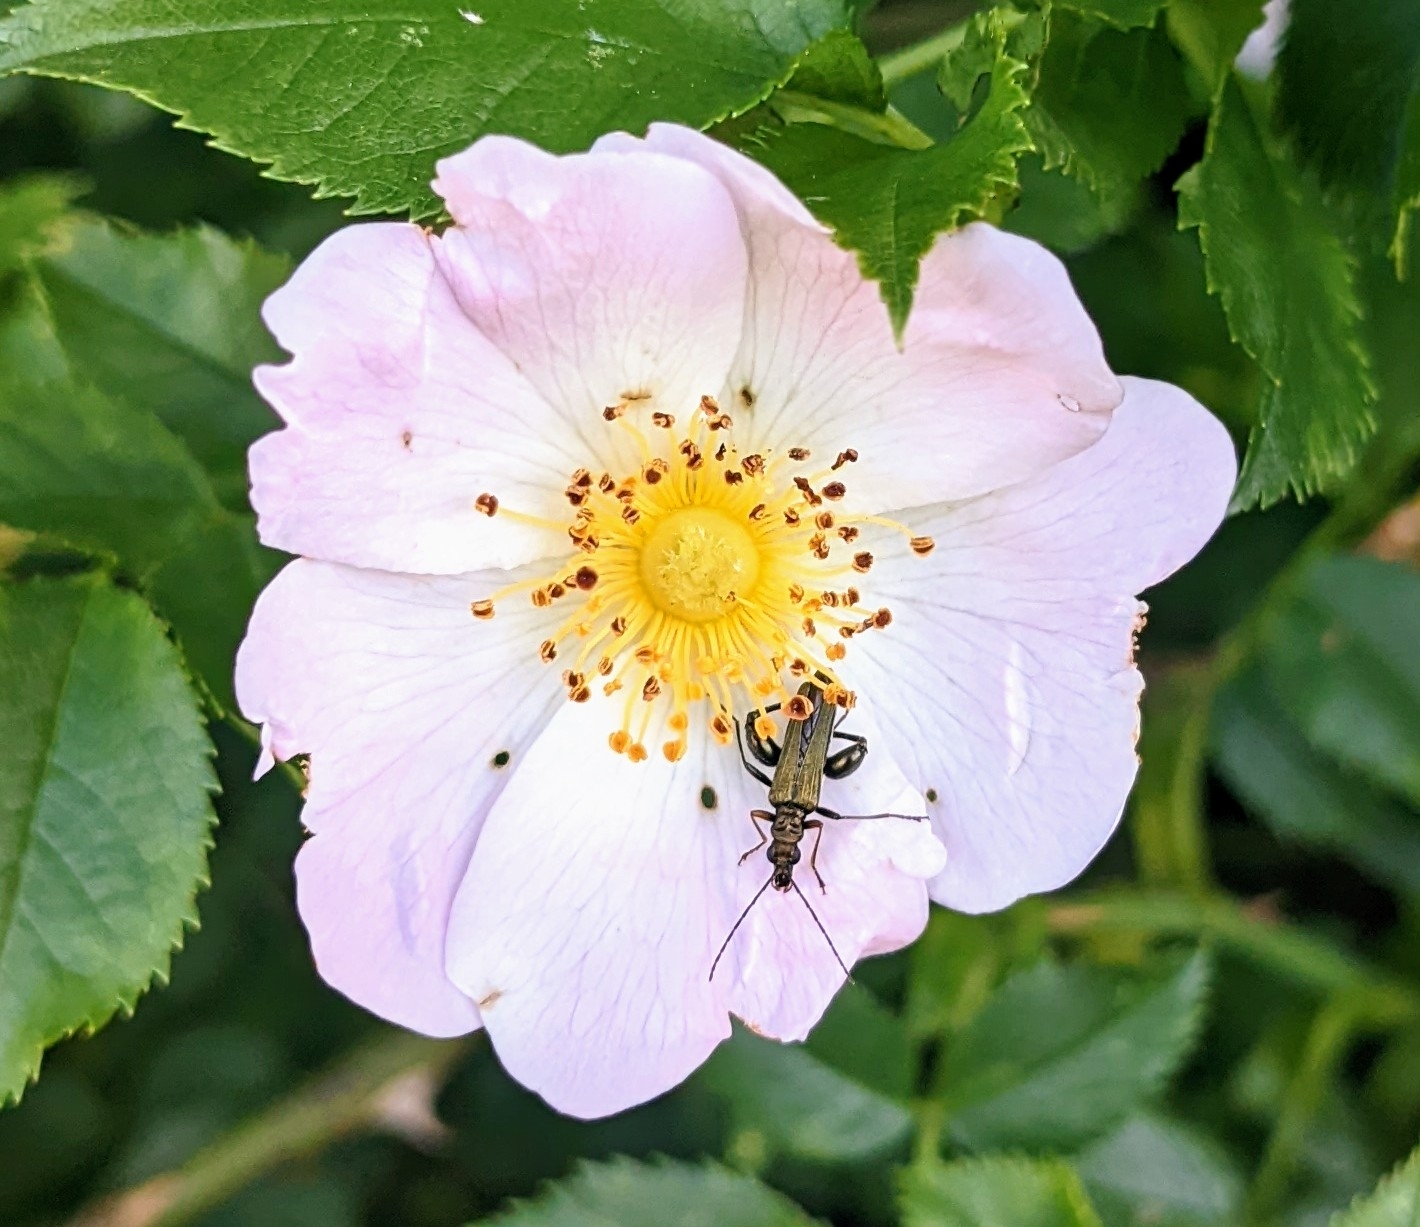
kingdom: Plantae
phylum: Tracheophyta
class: Magnoliopsida
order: Rosales
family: Rosaceae
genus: Rosa
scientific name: Rosa canina
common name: Dog rose
